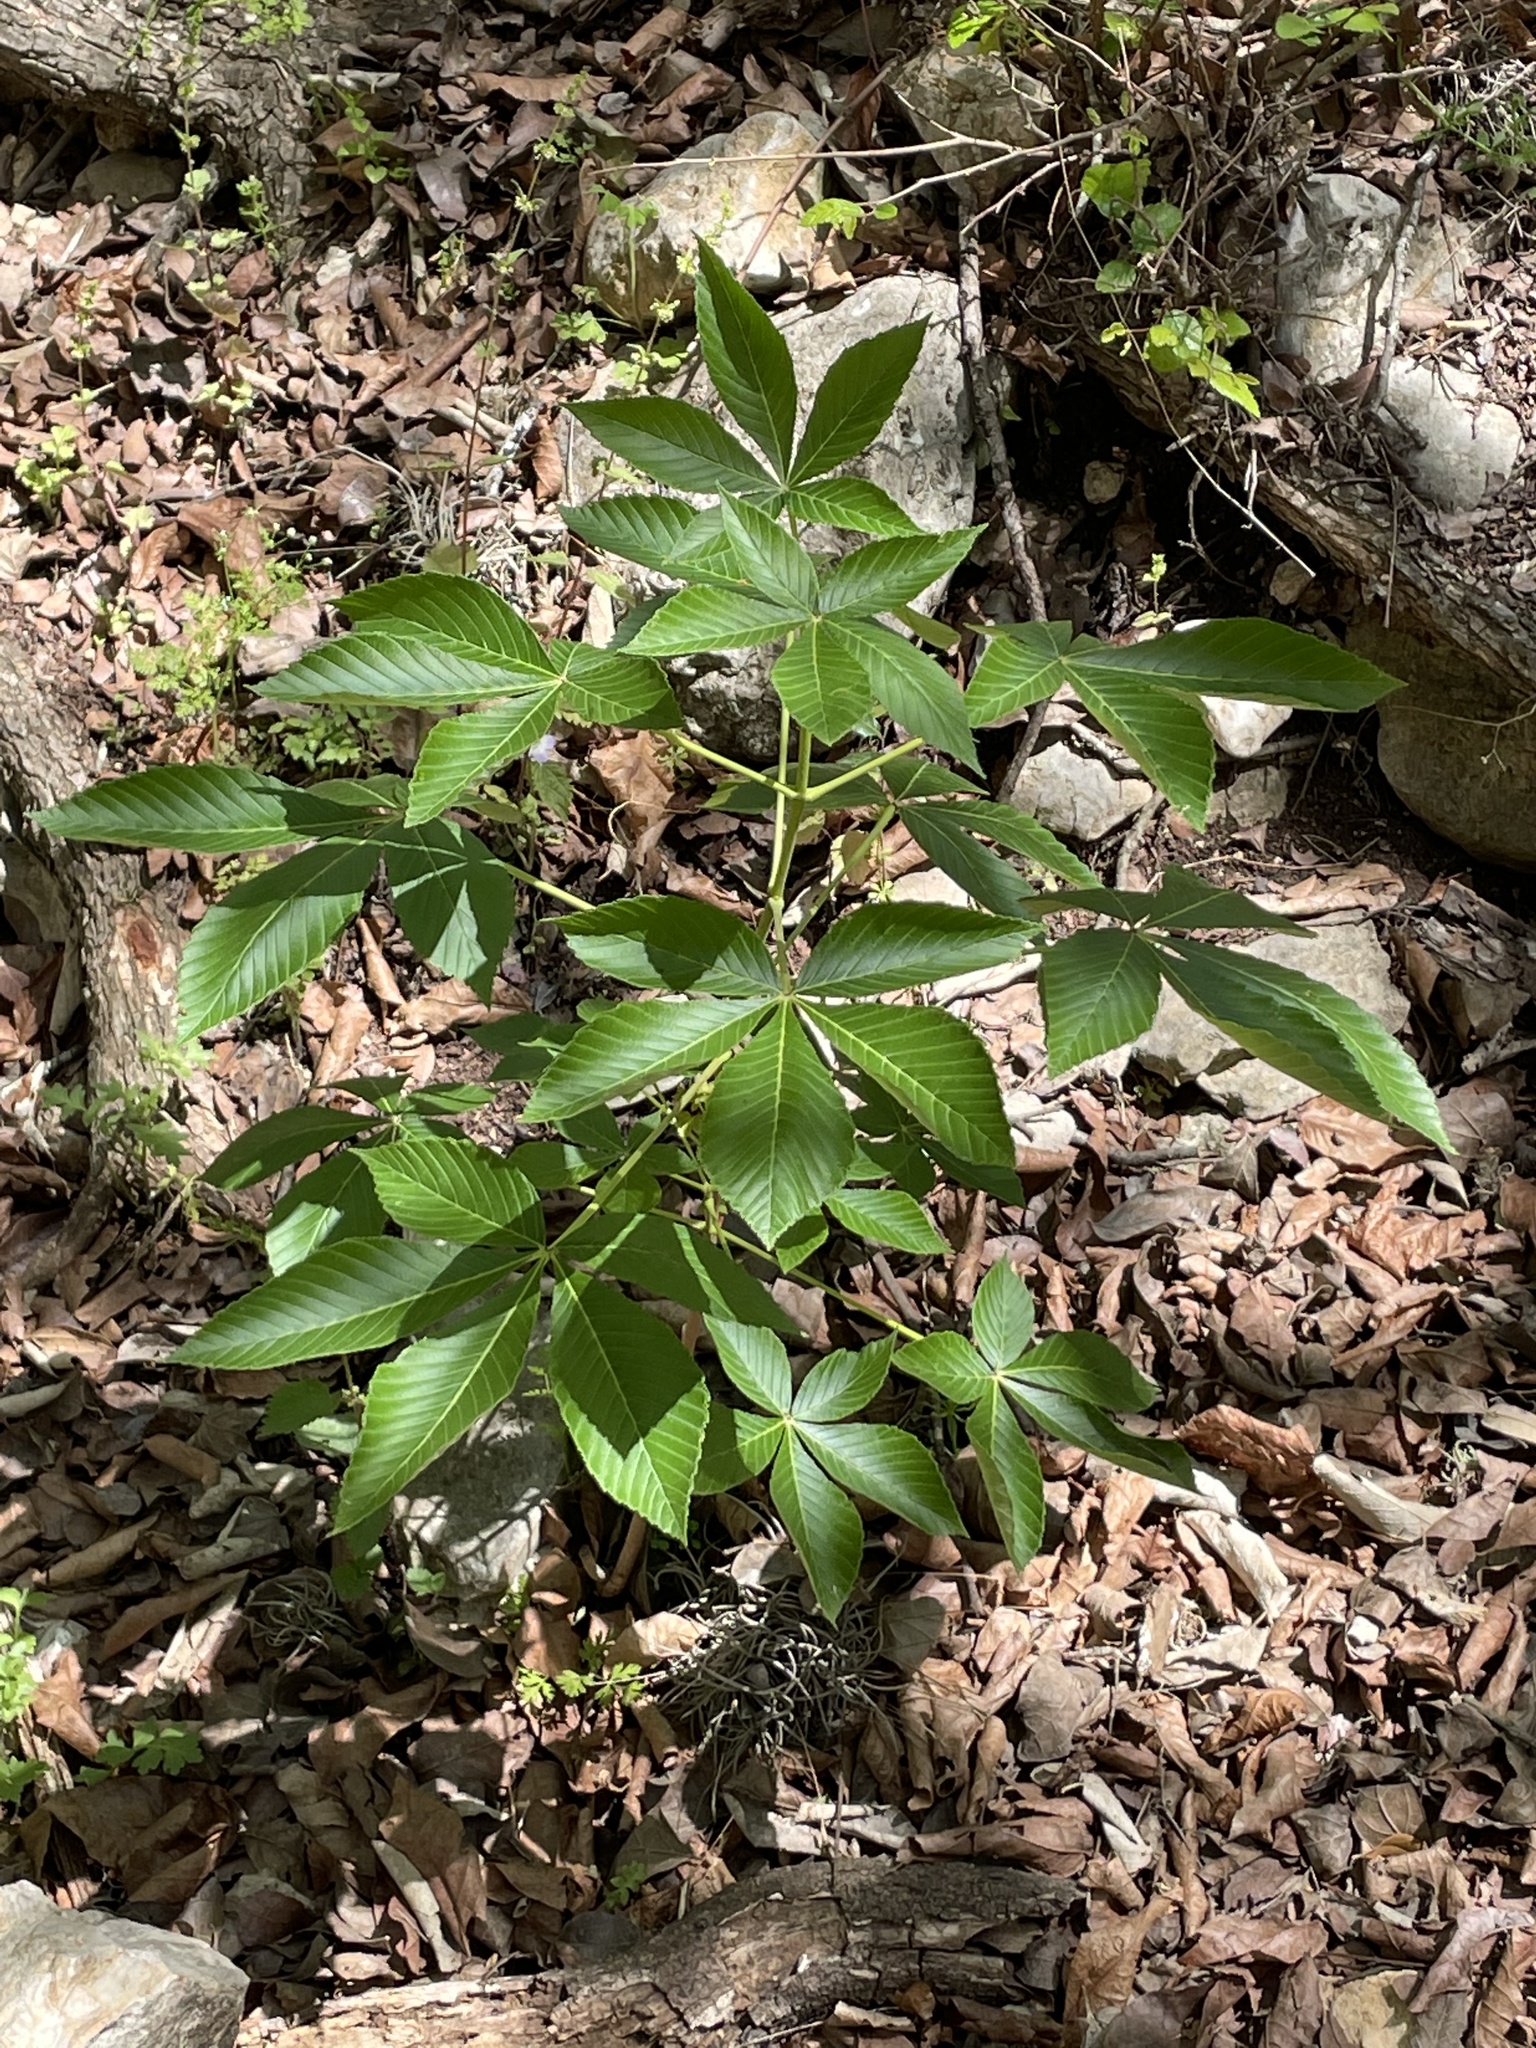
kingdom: Plantae
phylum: Tracheophyta
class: Magnoliopsida
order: Sapindales
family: Sapindaceae
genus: Aesculus
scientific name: Aesculus pavia
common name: Red buckeye
